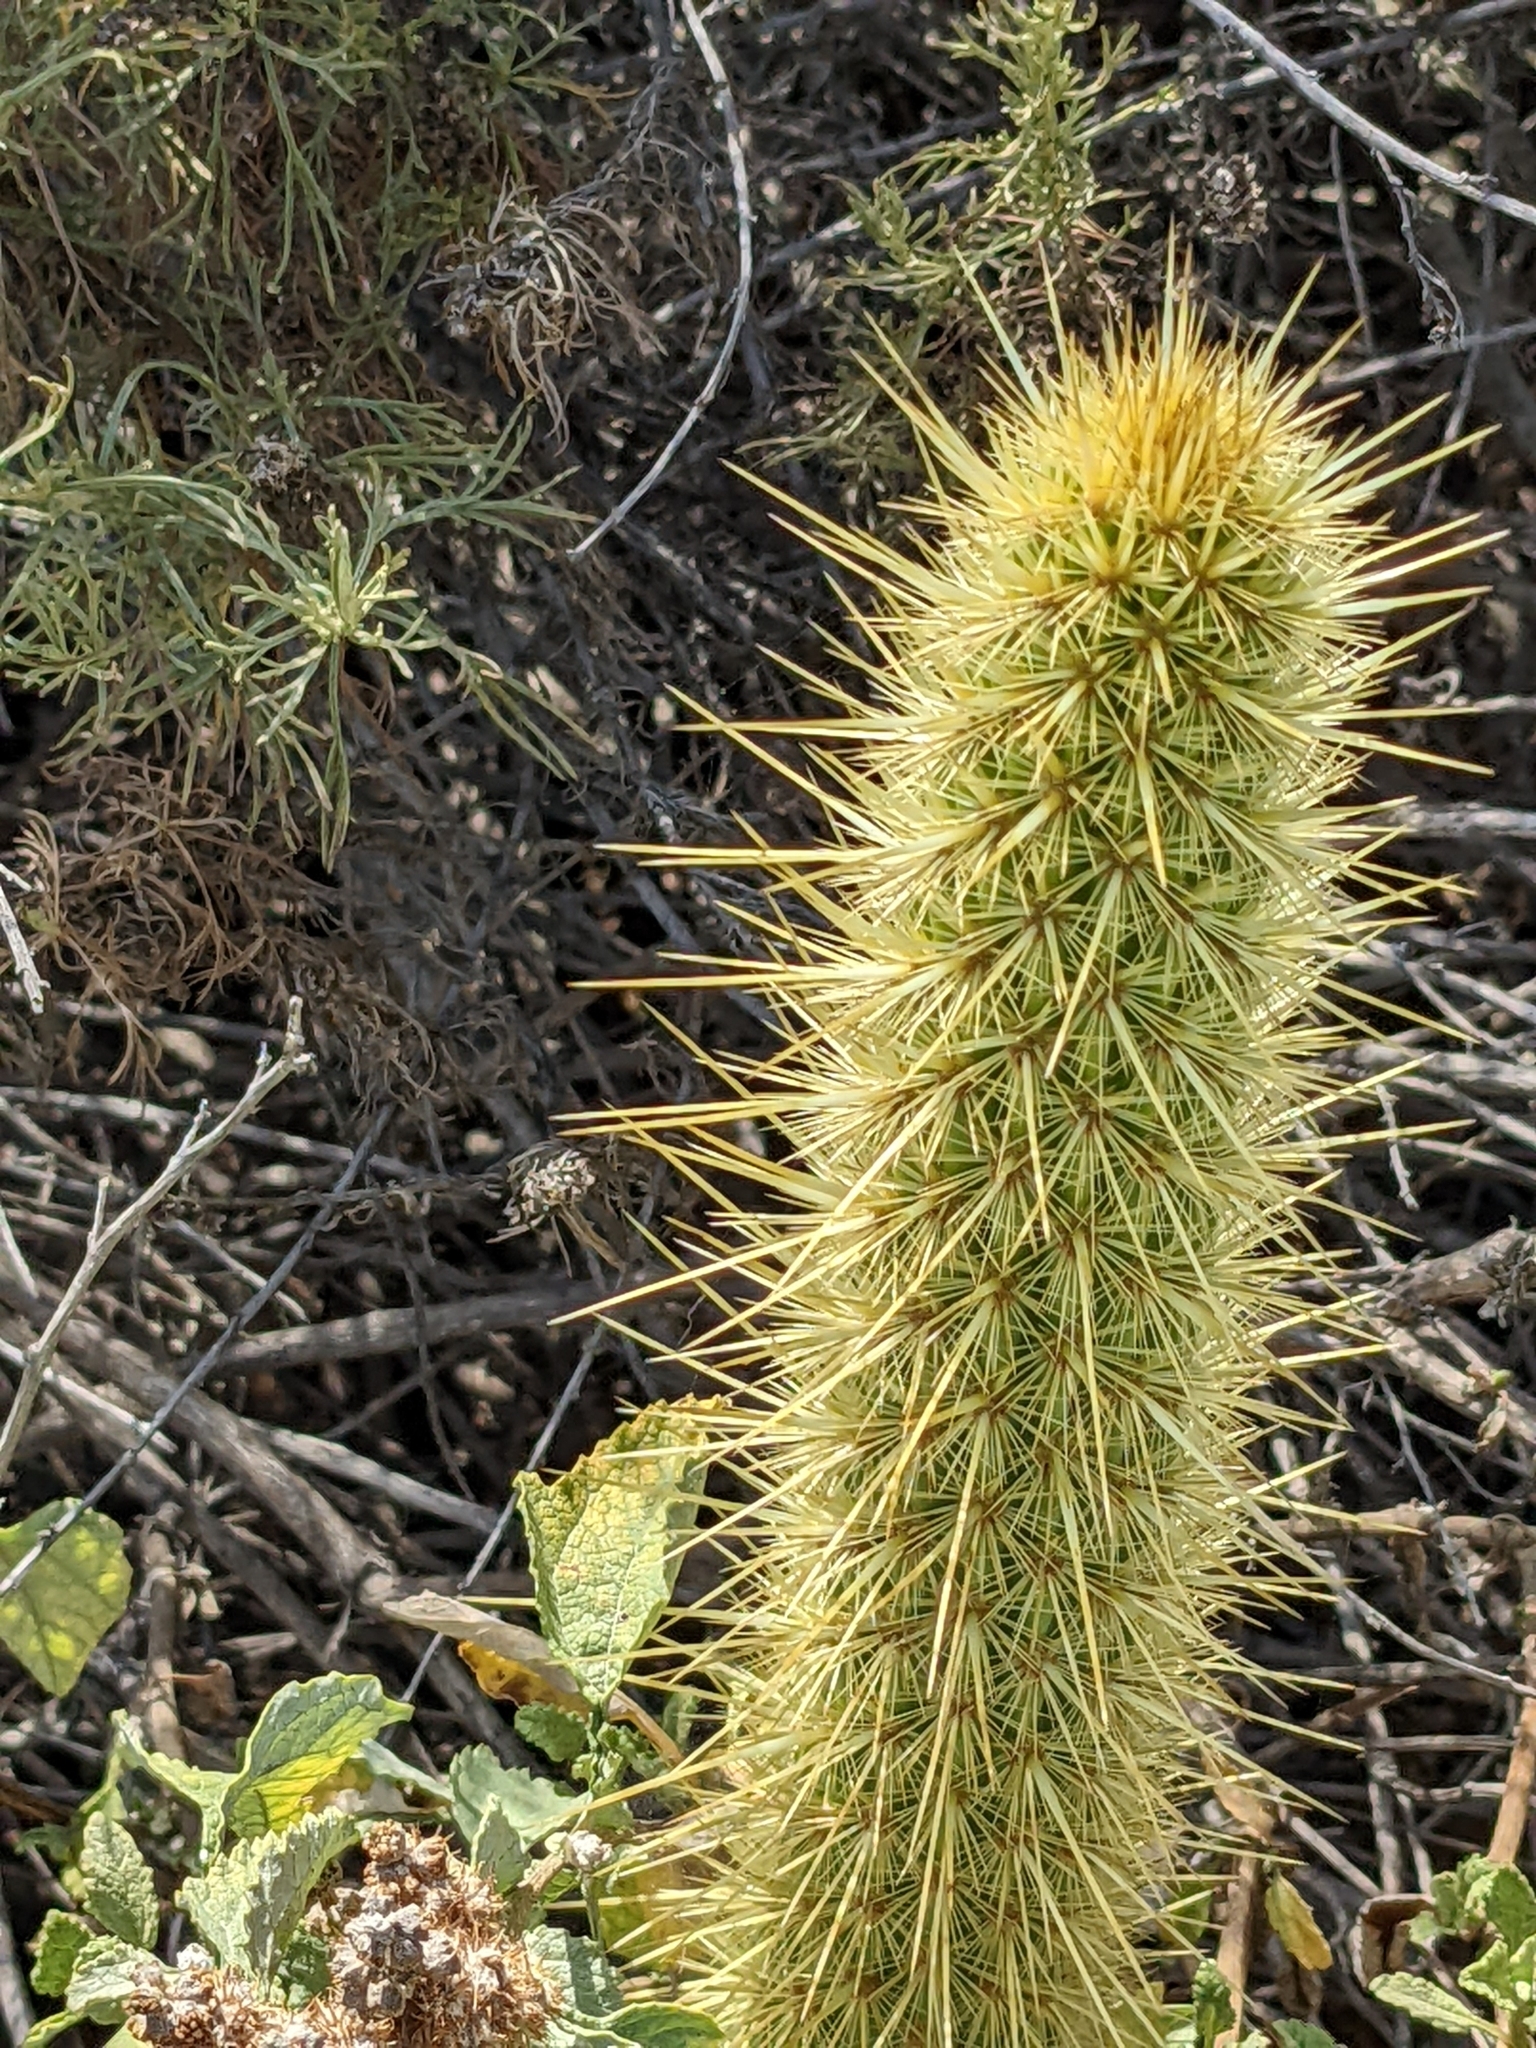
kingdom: Plantae
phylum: Tracheophyta
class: Magnoliopsida
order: Caryophyllales
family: Cactaceae
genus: Bergerocactus
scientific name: Bergerocactus emoryi
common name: Golden snakecactus
